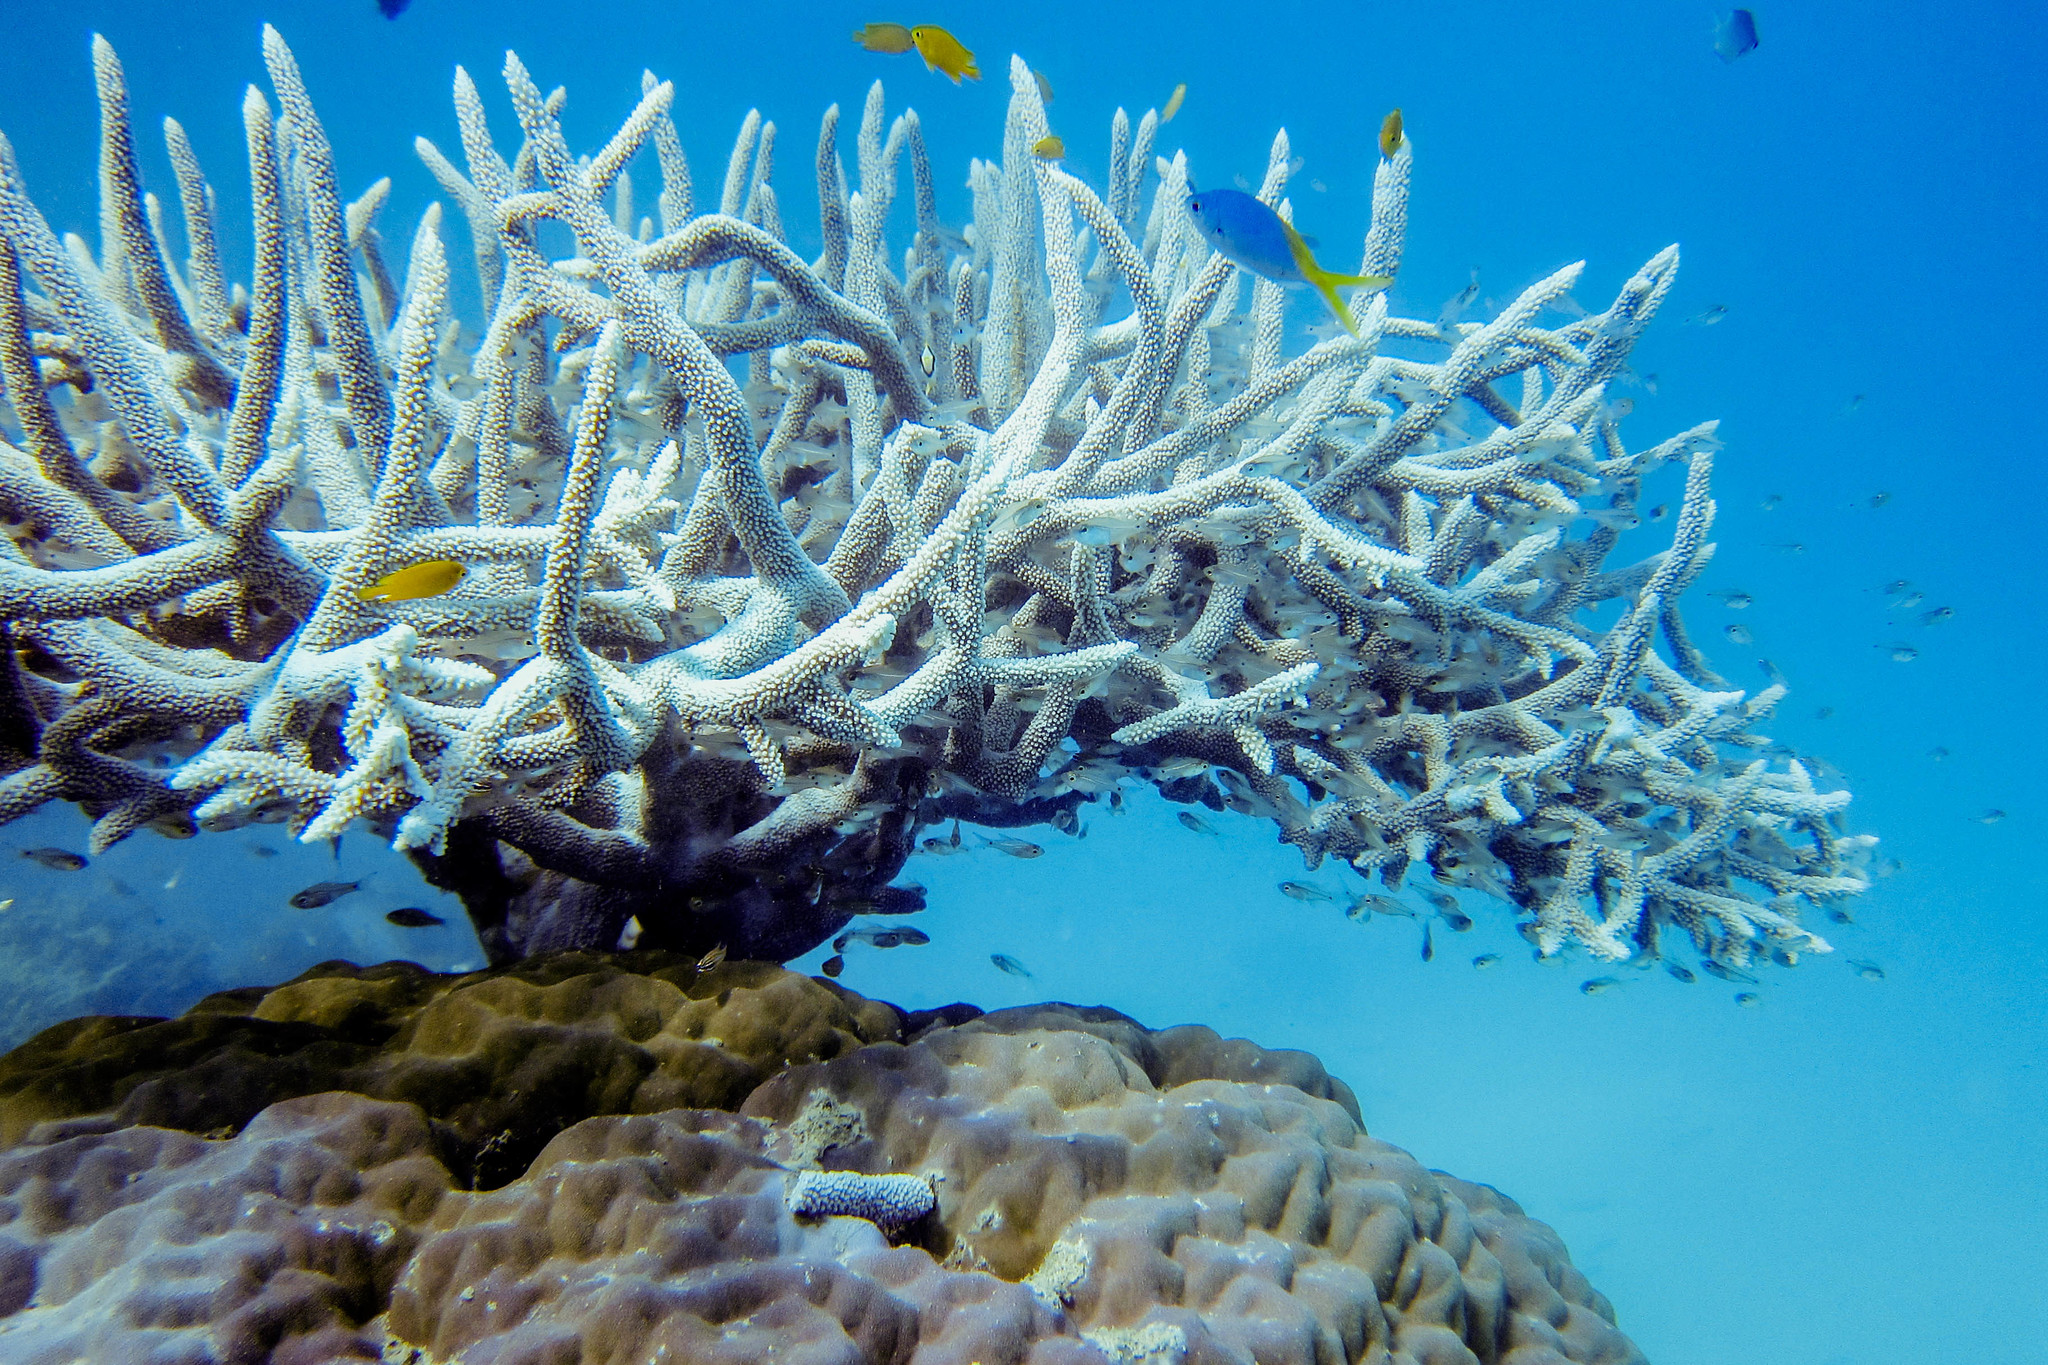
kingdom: Animalia
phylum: Chordata
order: Perciformes
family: Pomacentridae
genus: Pomacentrus
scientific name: Pomacentrus moluccensis
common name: Lemon damsel
